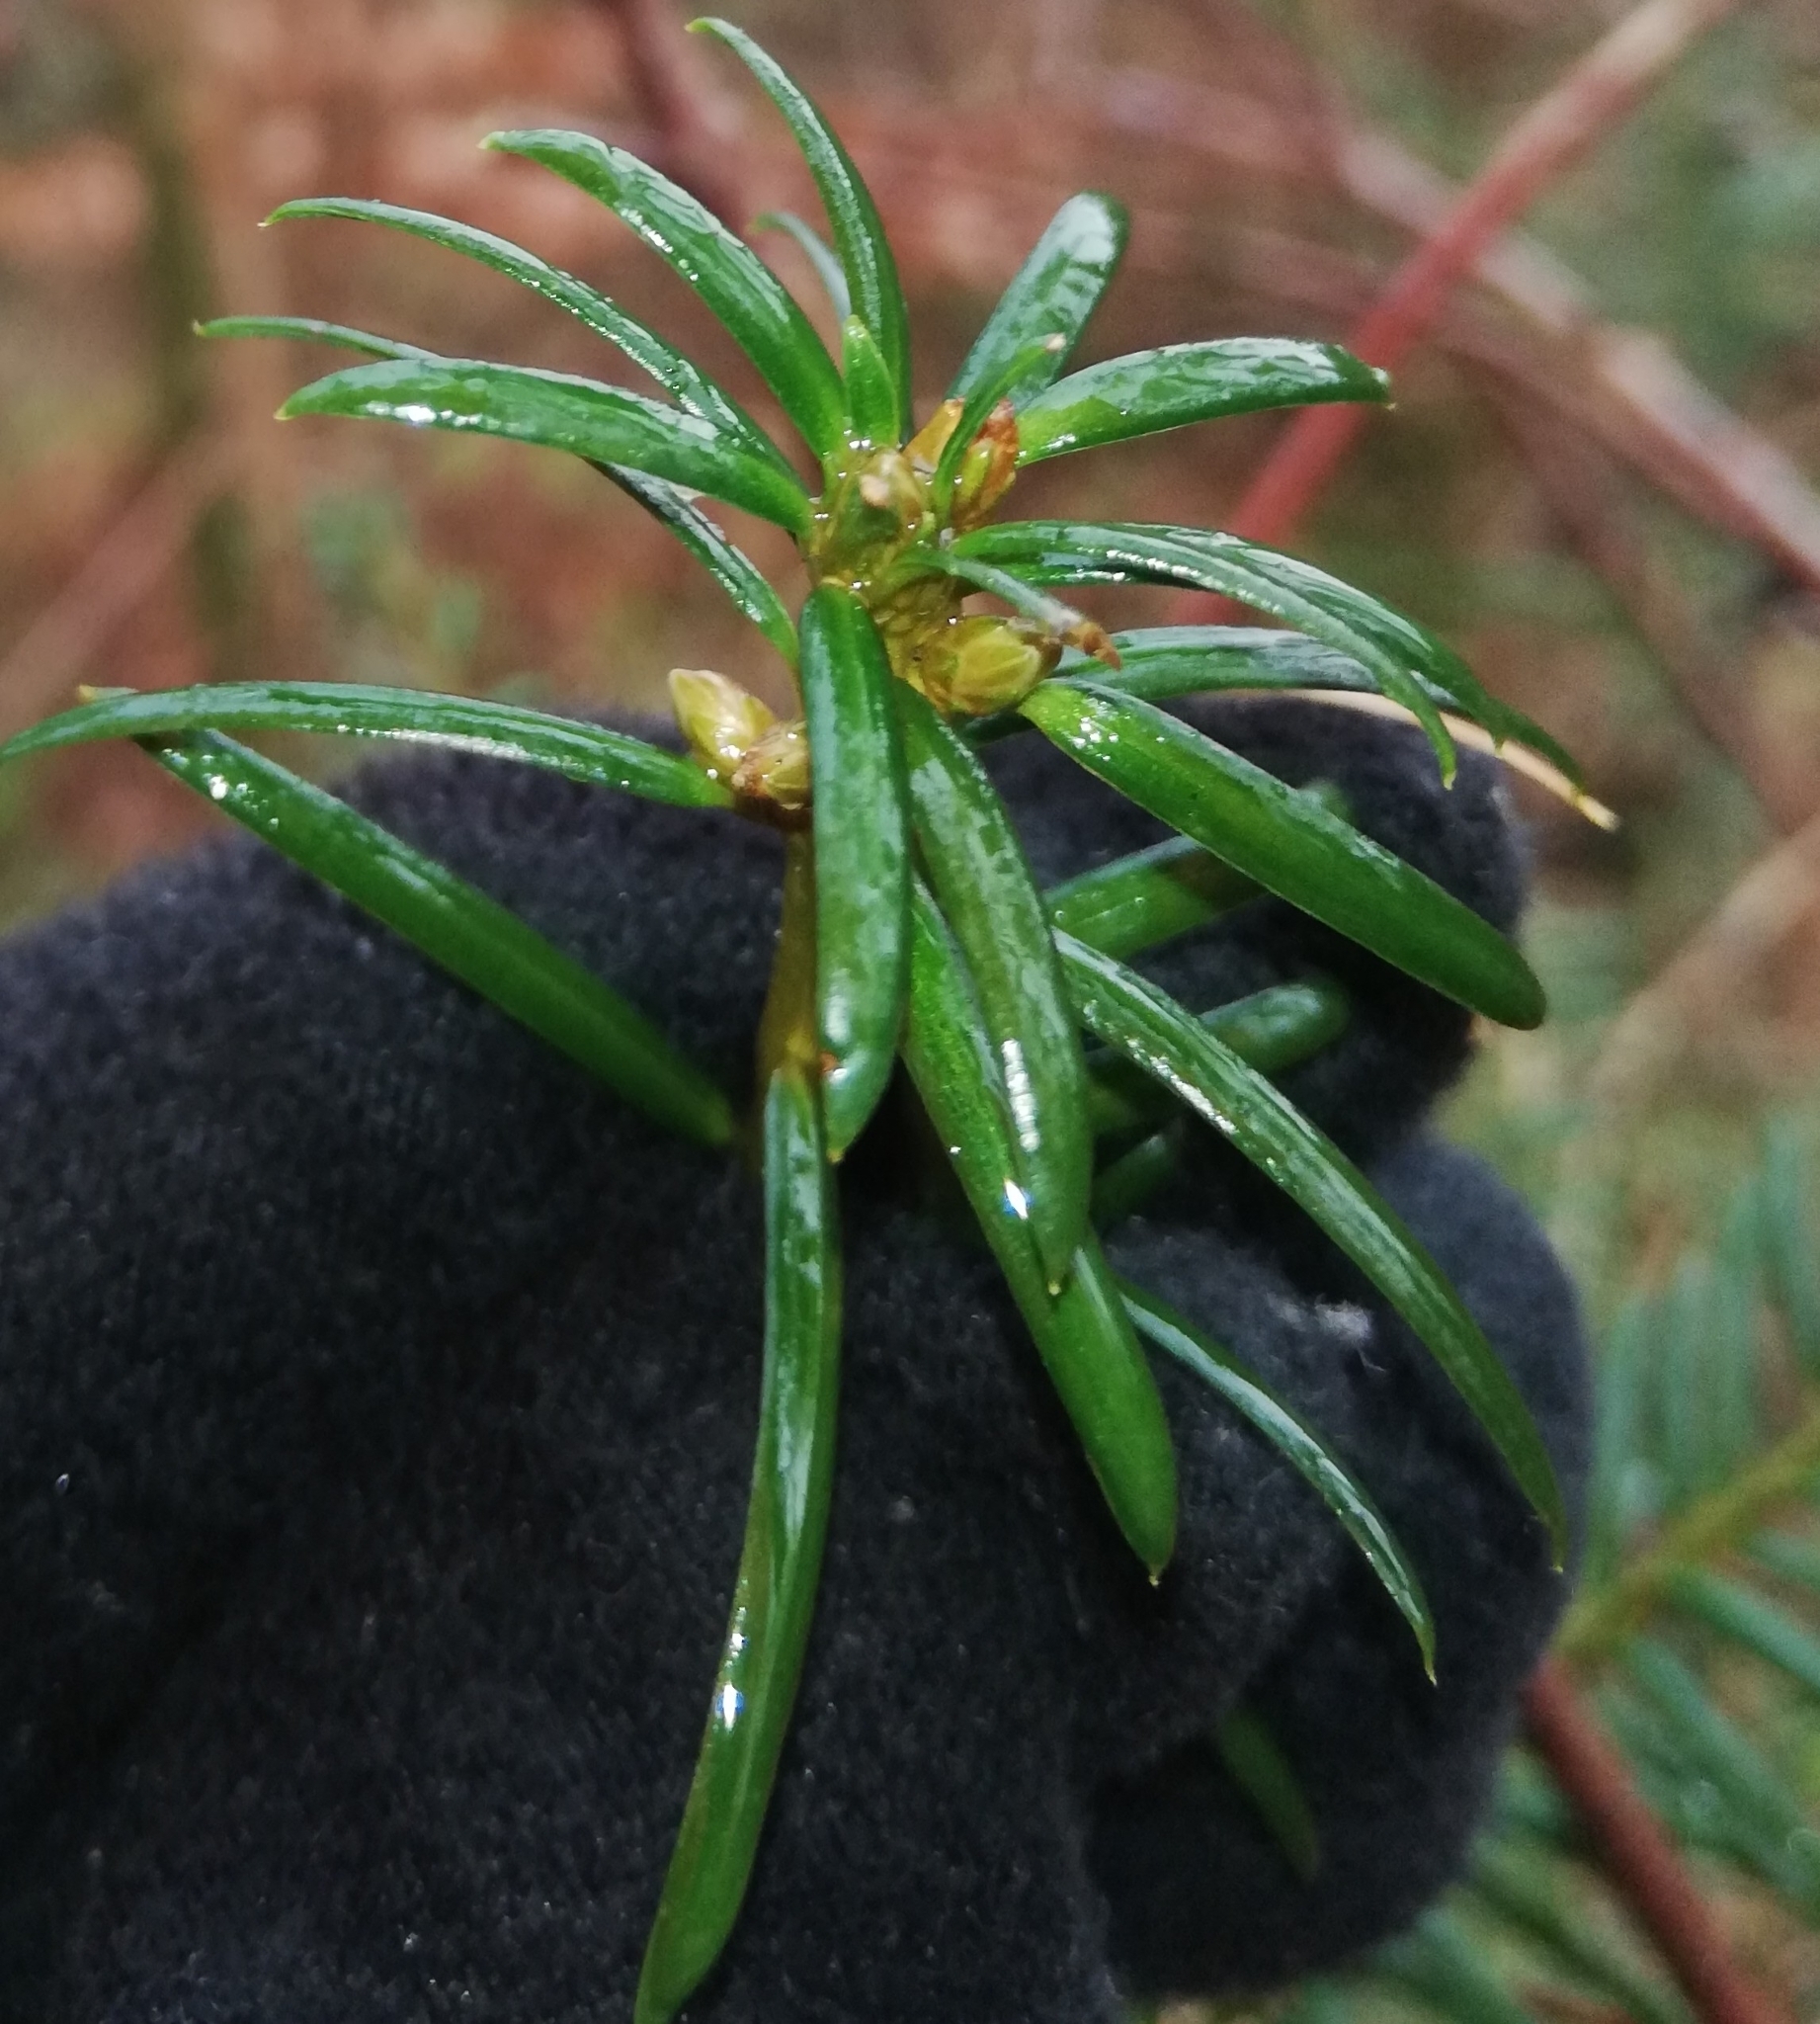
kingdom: Plantae
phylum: Tracheophyta
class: Pinopsida
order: Pinales
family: Taxaceae
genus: Taxus
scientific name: Taxus baccata
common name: Yew
